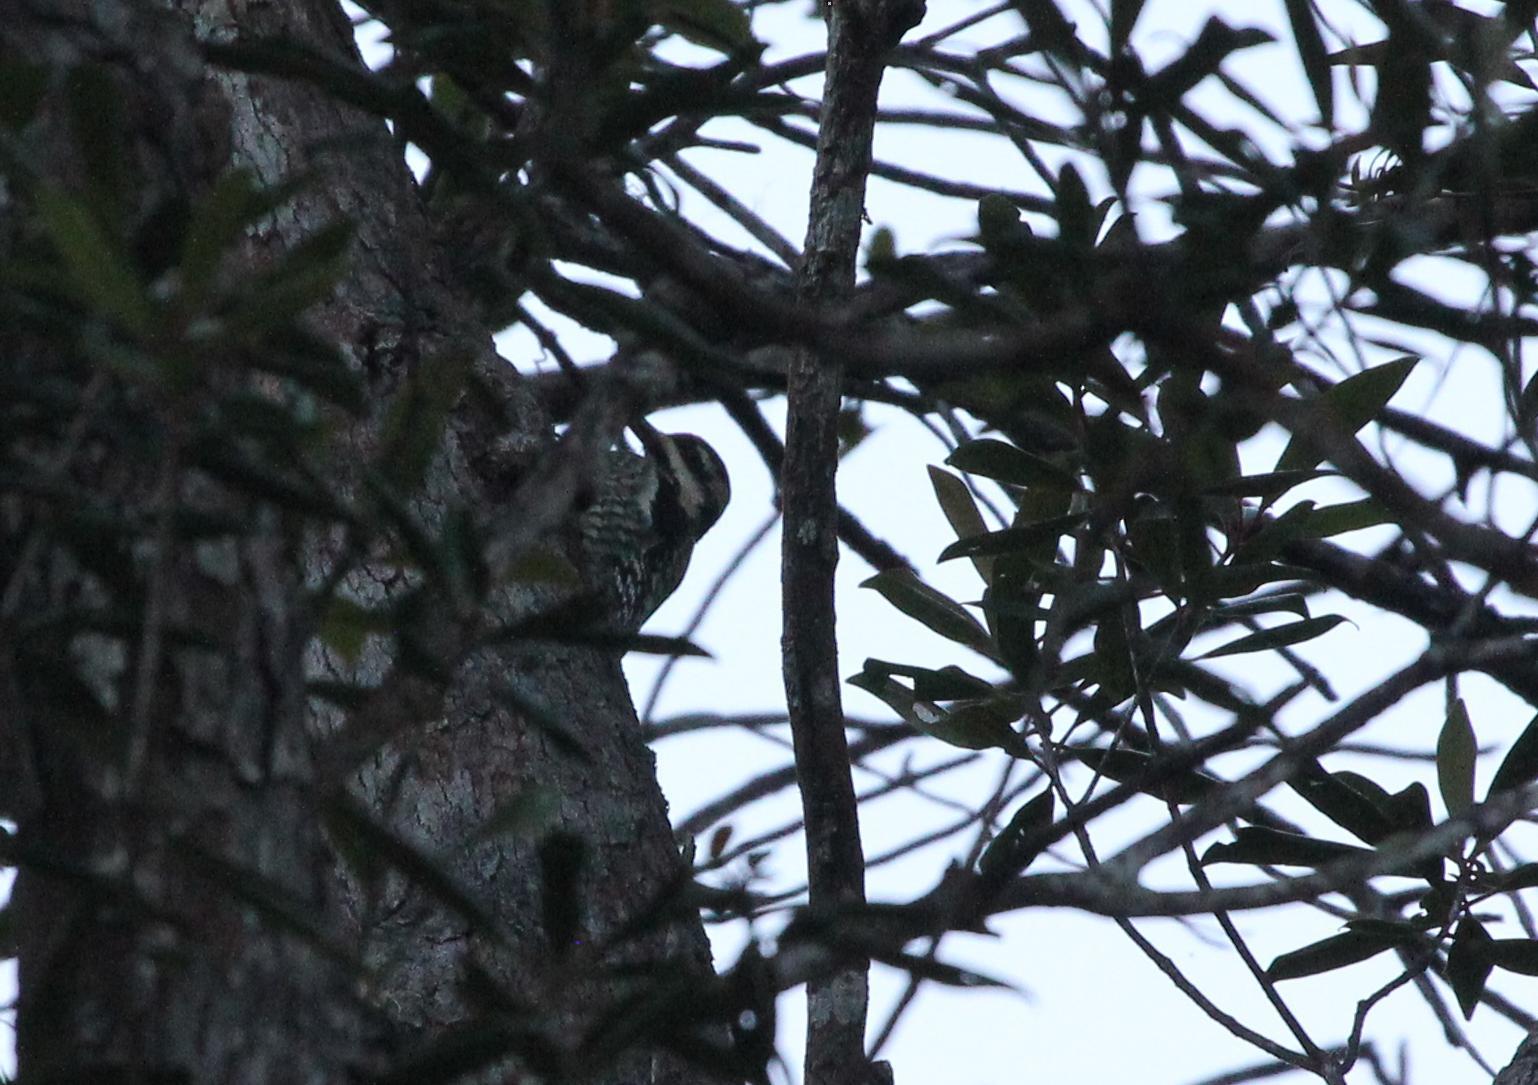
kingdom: Animalia
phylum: Chordata
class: Aves
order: Piciformes
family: Picidae
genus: Sphyrapicus
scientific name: Sphyrapicus varius
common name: Yellow-bellied sapsucker
